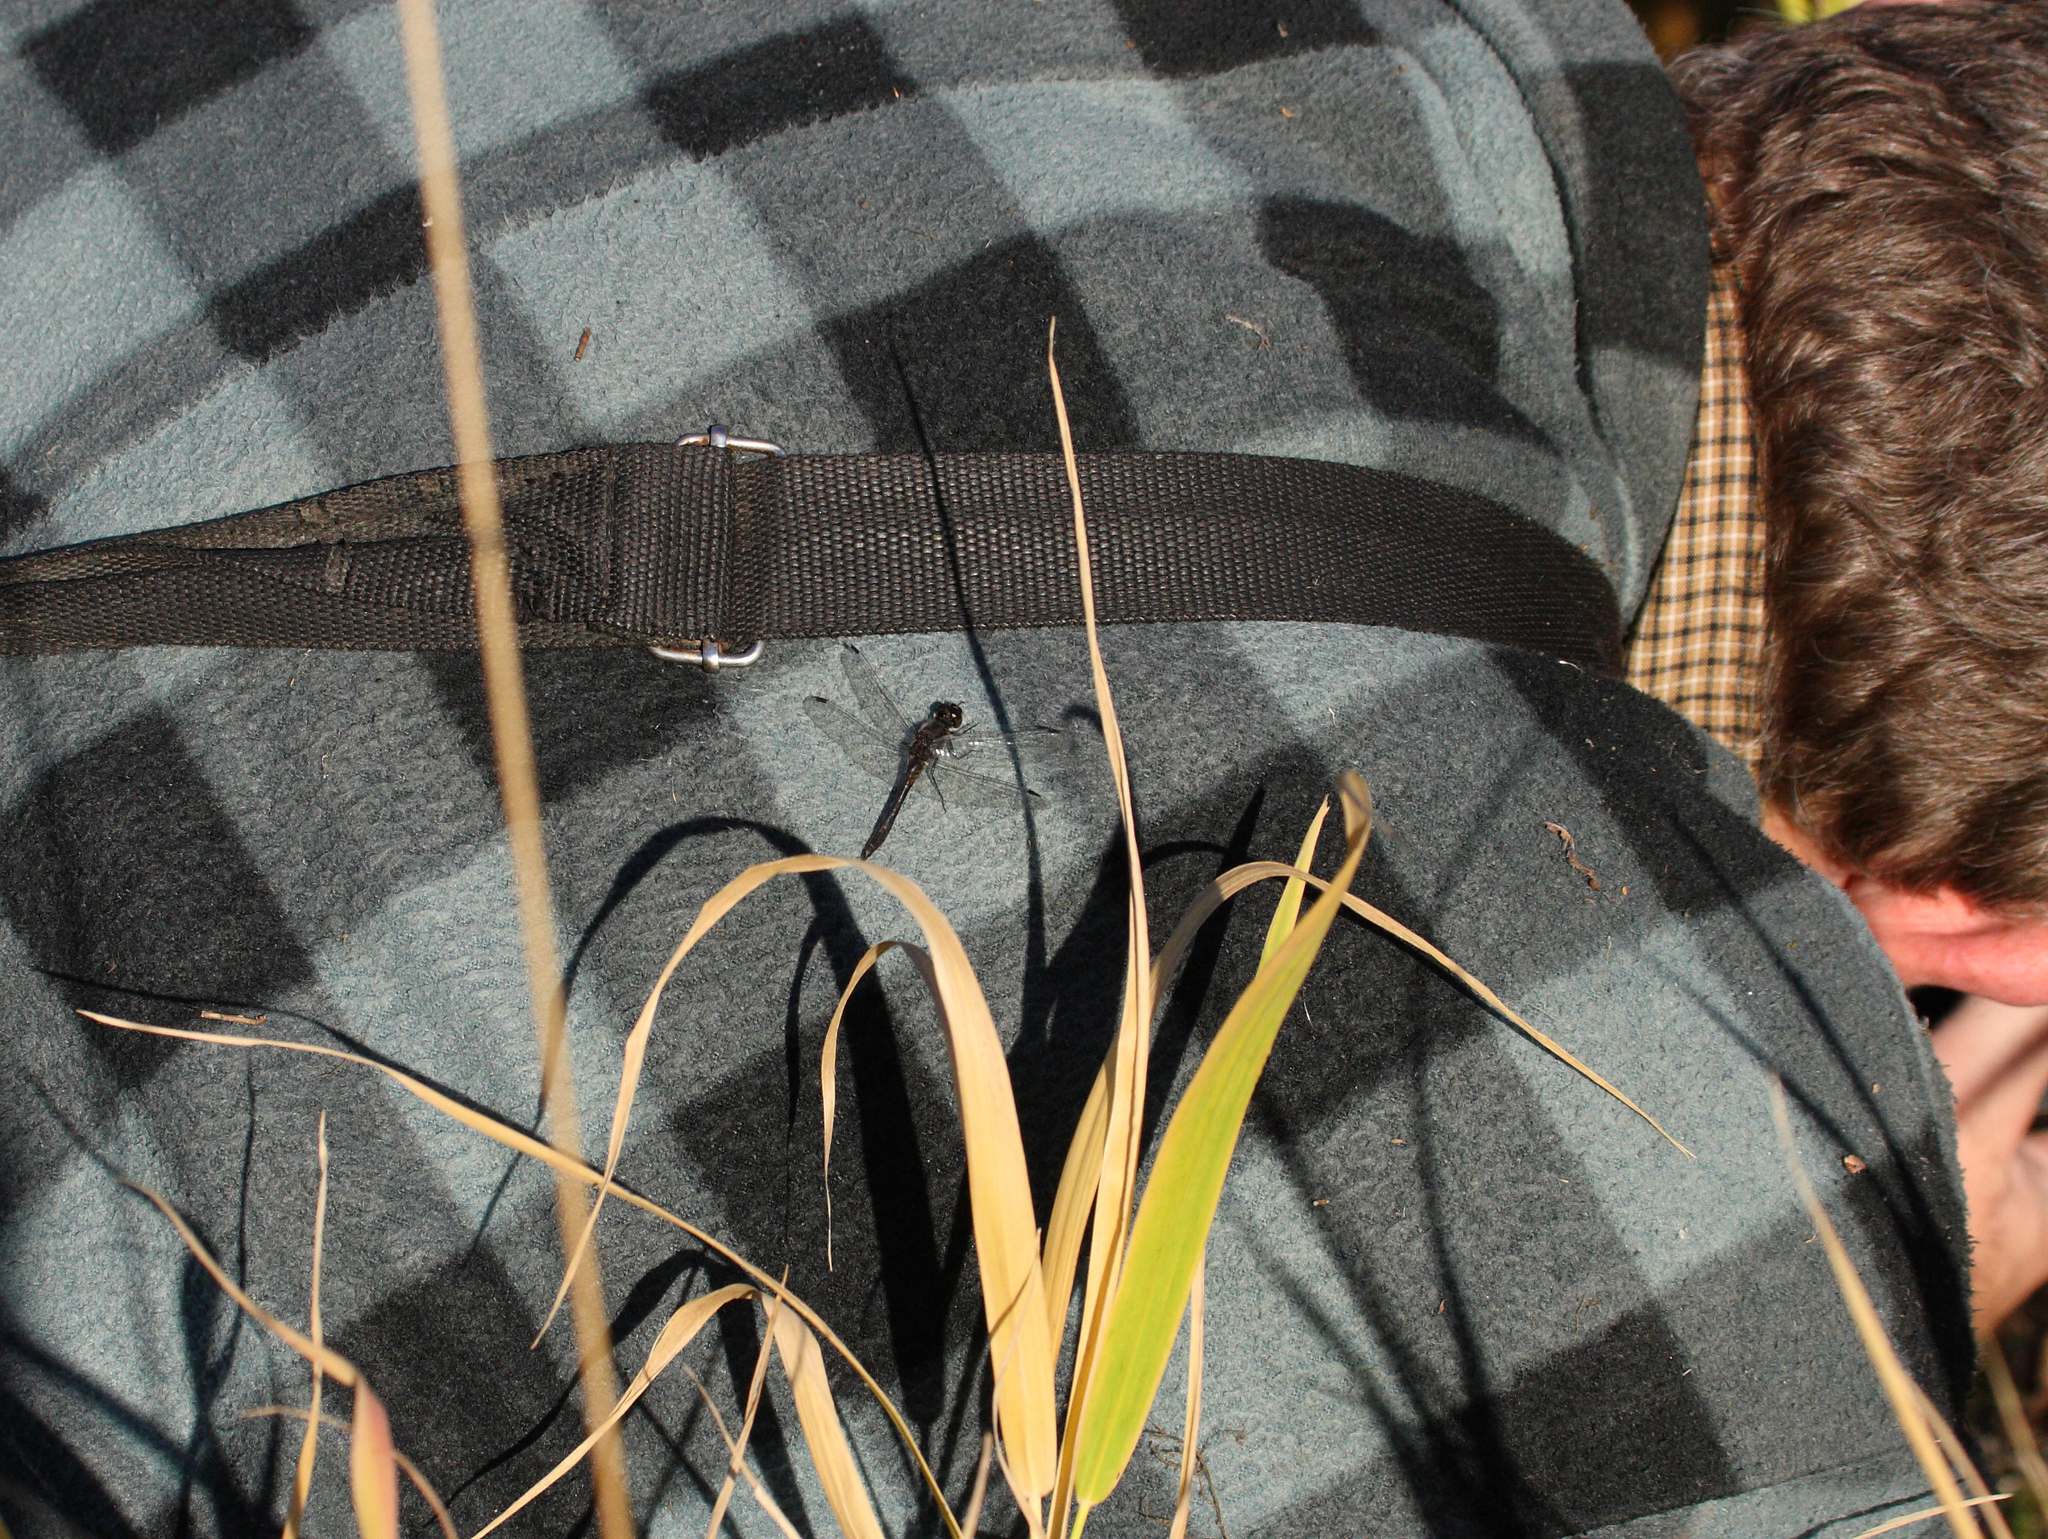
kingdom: Animalia
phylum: Arthropoda
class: Insecta
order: Odonata
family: Libellulidae
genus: Sympetrum
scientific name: Sympetrum danae
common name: Black darter
